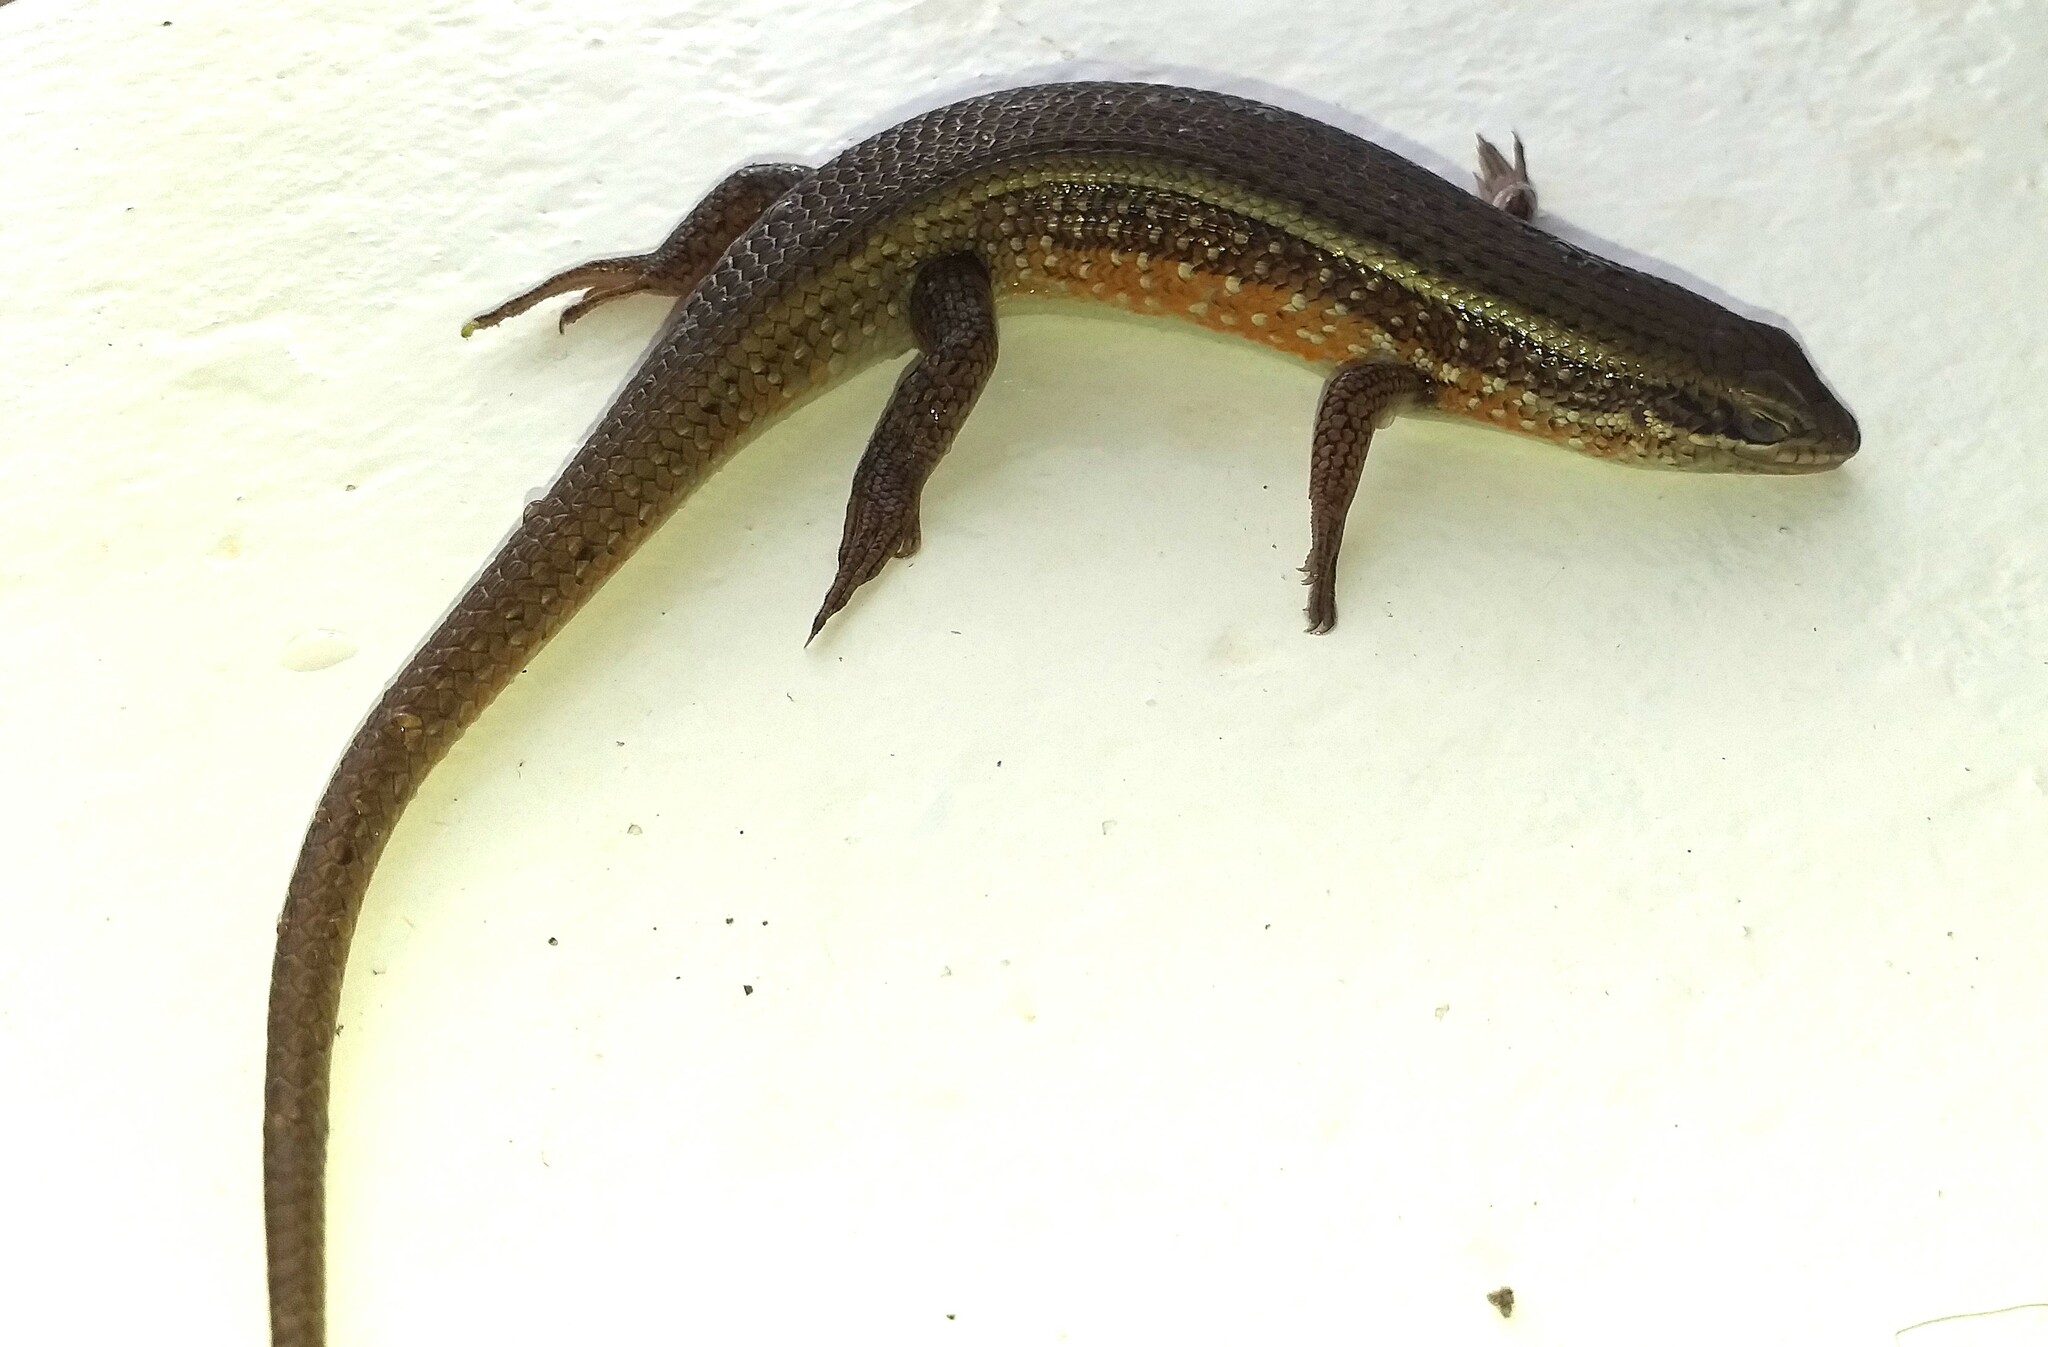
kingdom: Animalia
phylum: Chordata
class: Squamata
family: Scincidae
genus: Trachylepis
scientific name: Trachylepis perrotetii
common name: Teita mabuya
